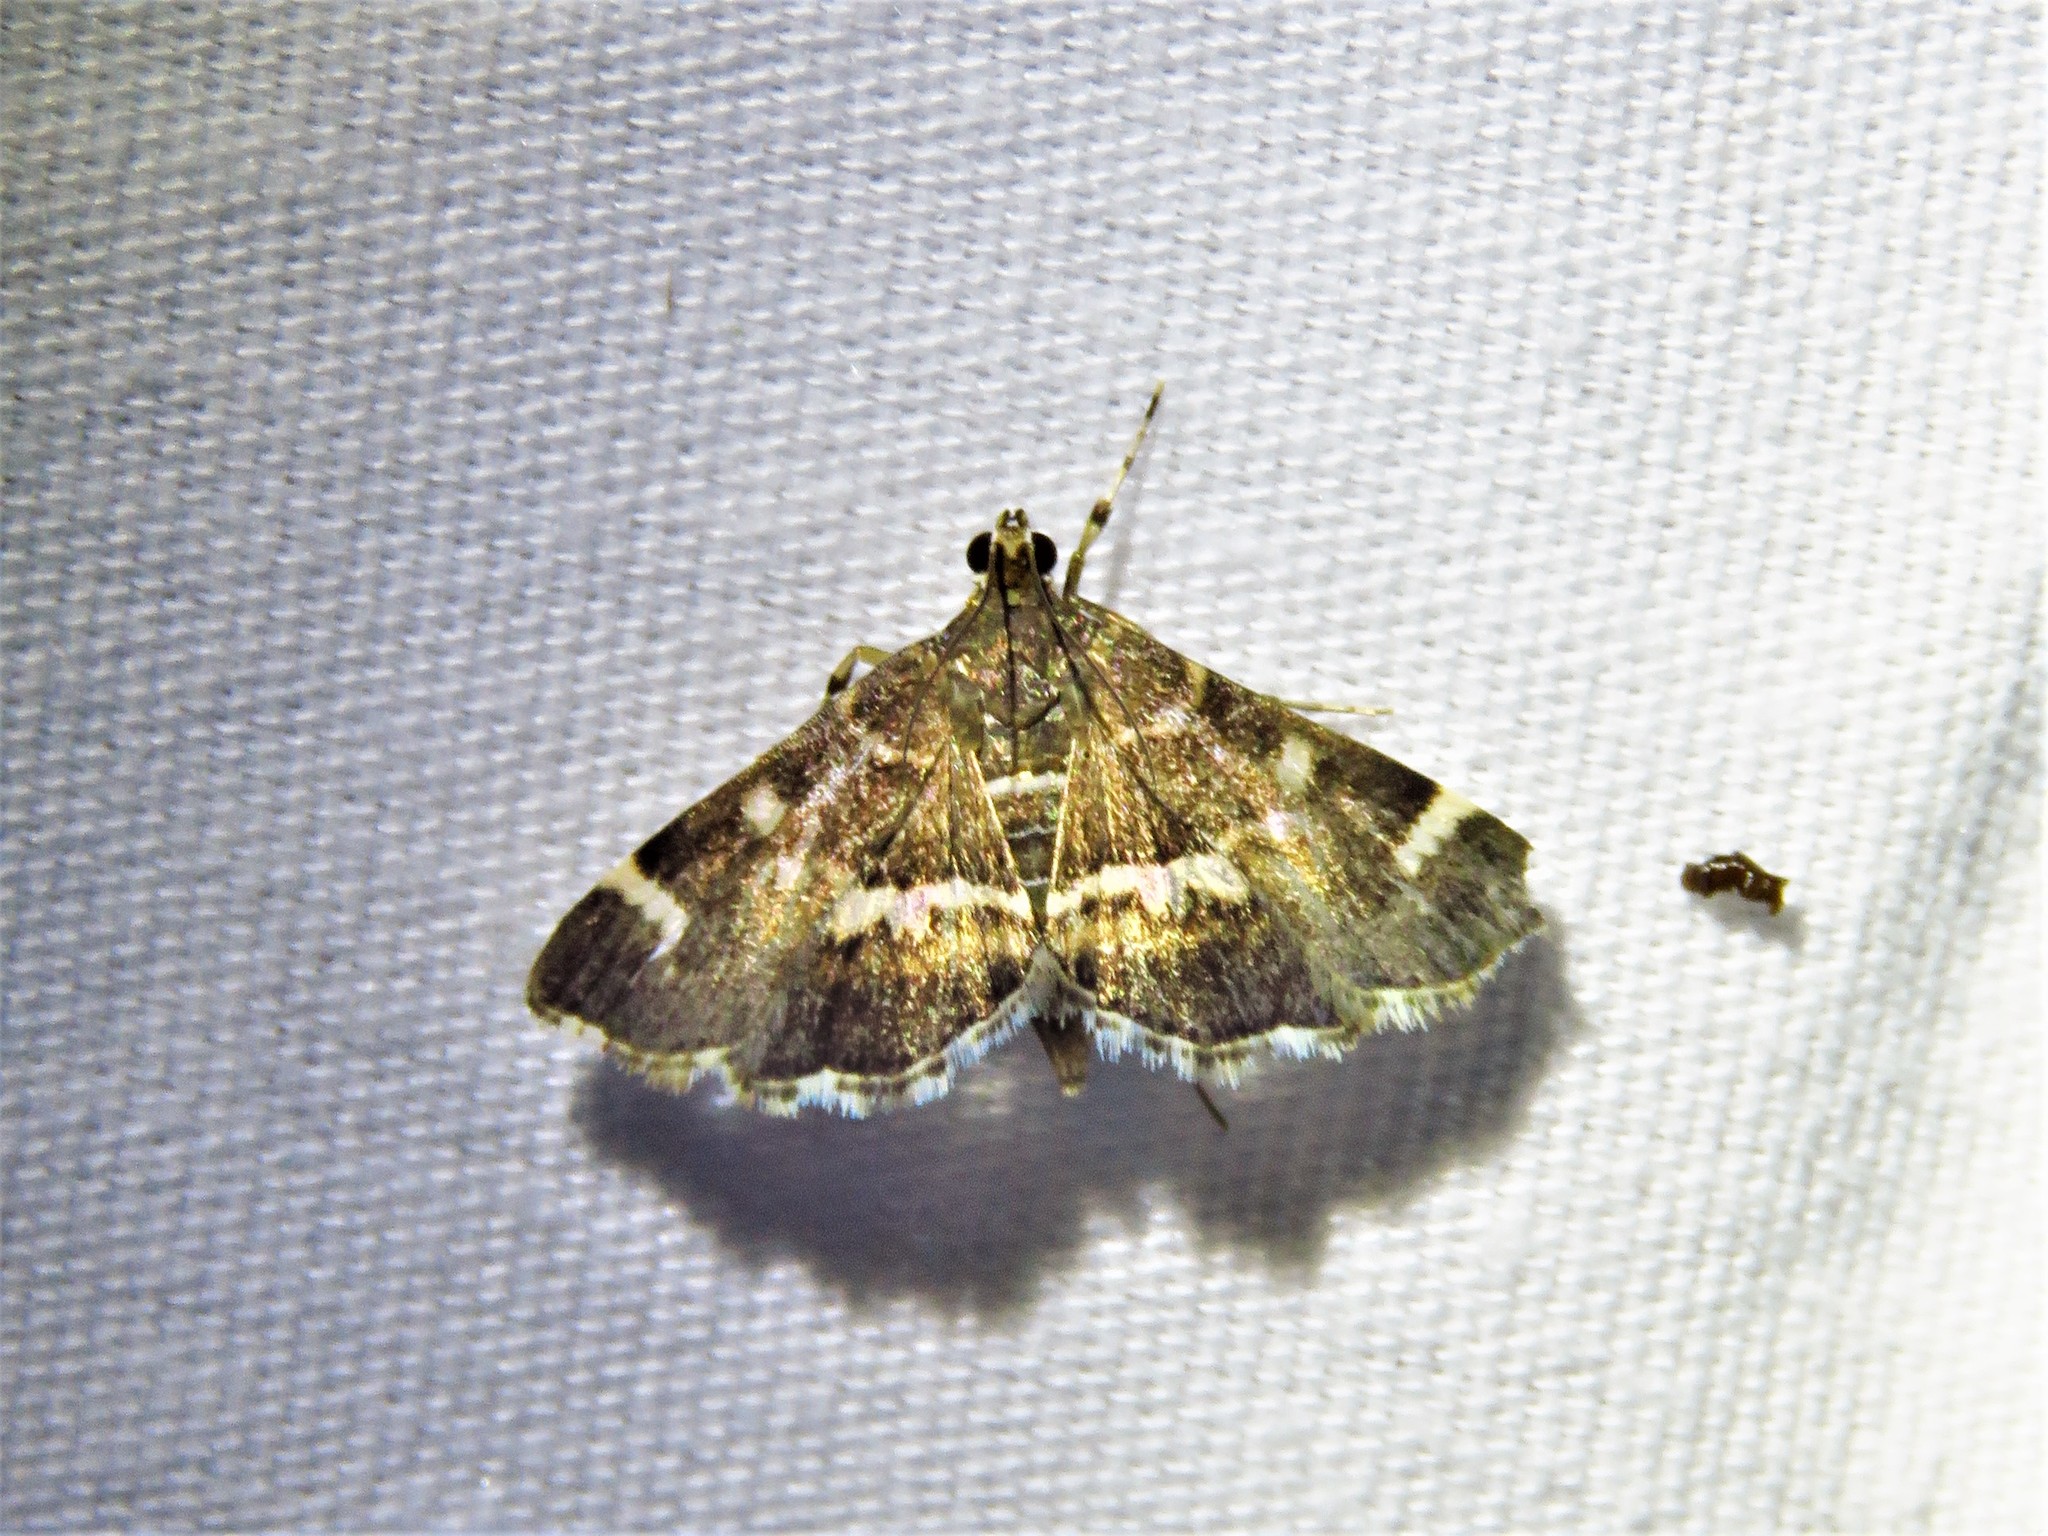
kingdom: Animalia
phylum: Arthropoda
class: Insecta
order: Lepidoptera
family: Crambidae
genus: Hymenia
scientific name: Hymenia perspectalis
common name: Spotted beet webworm
